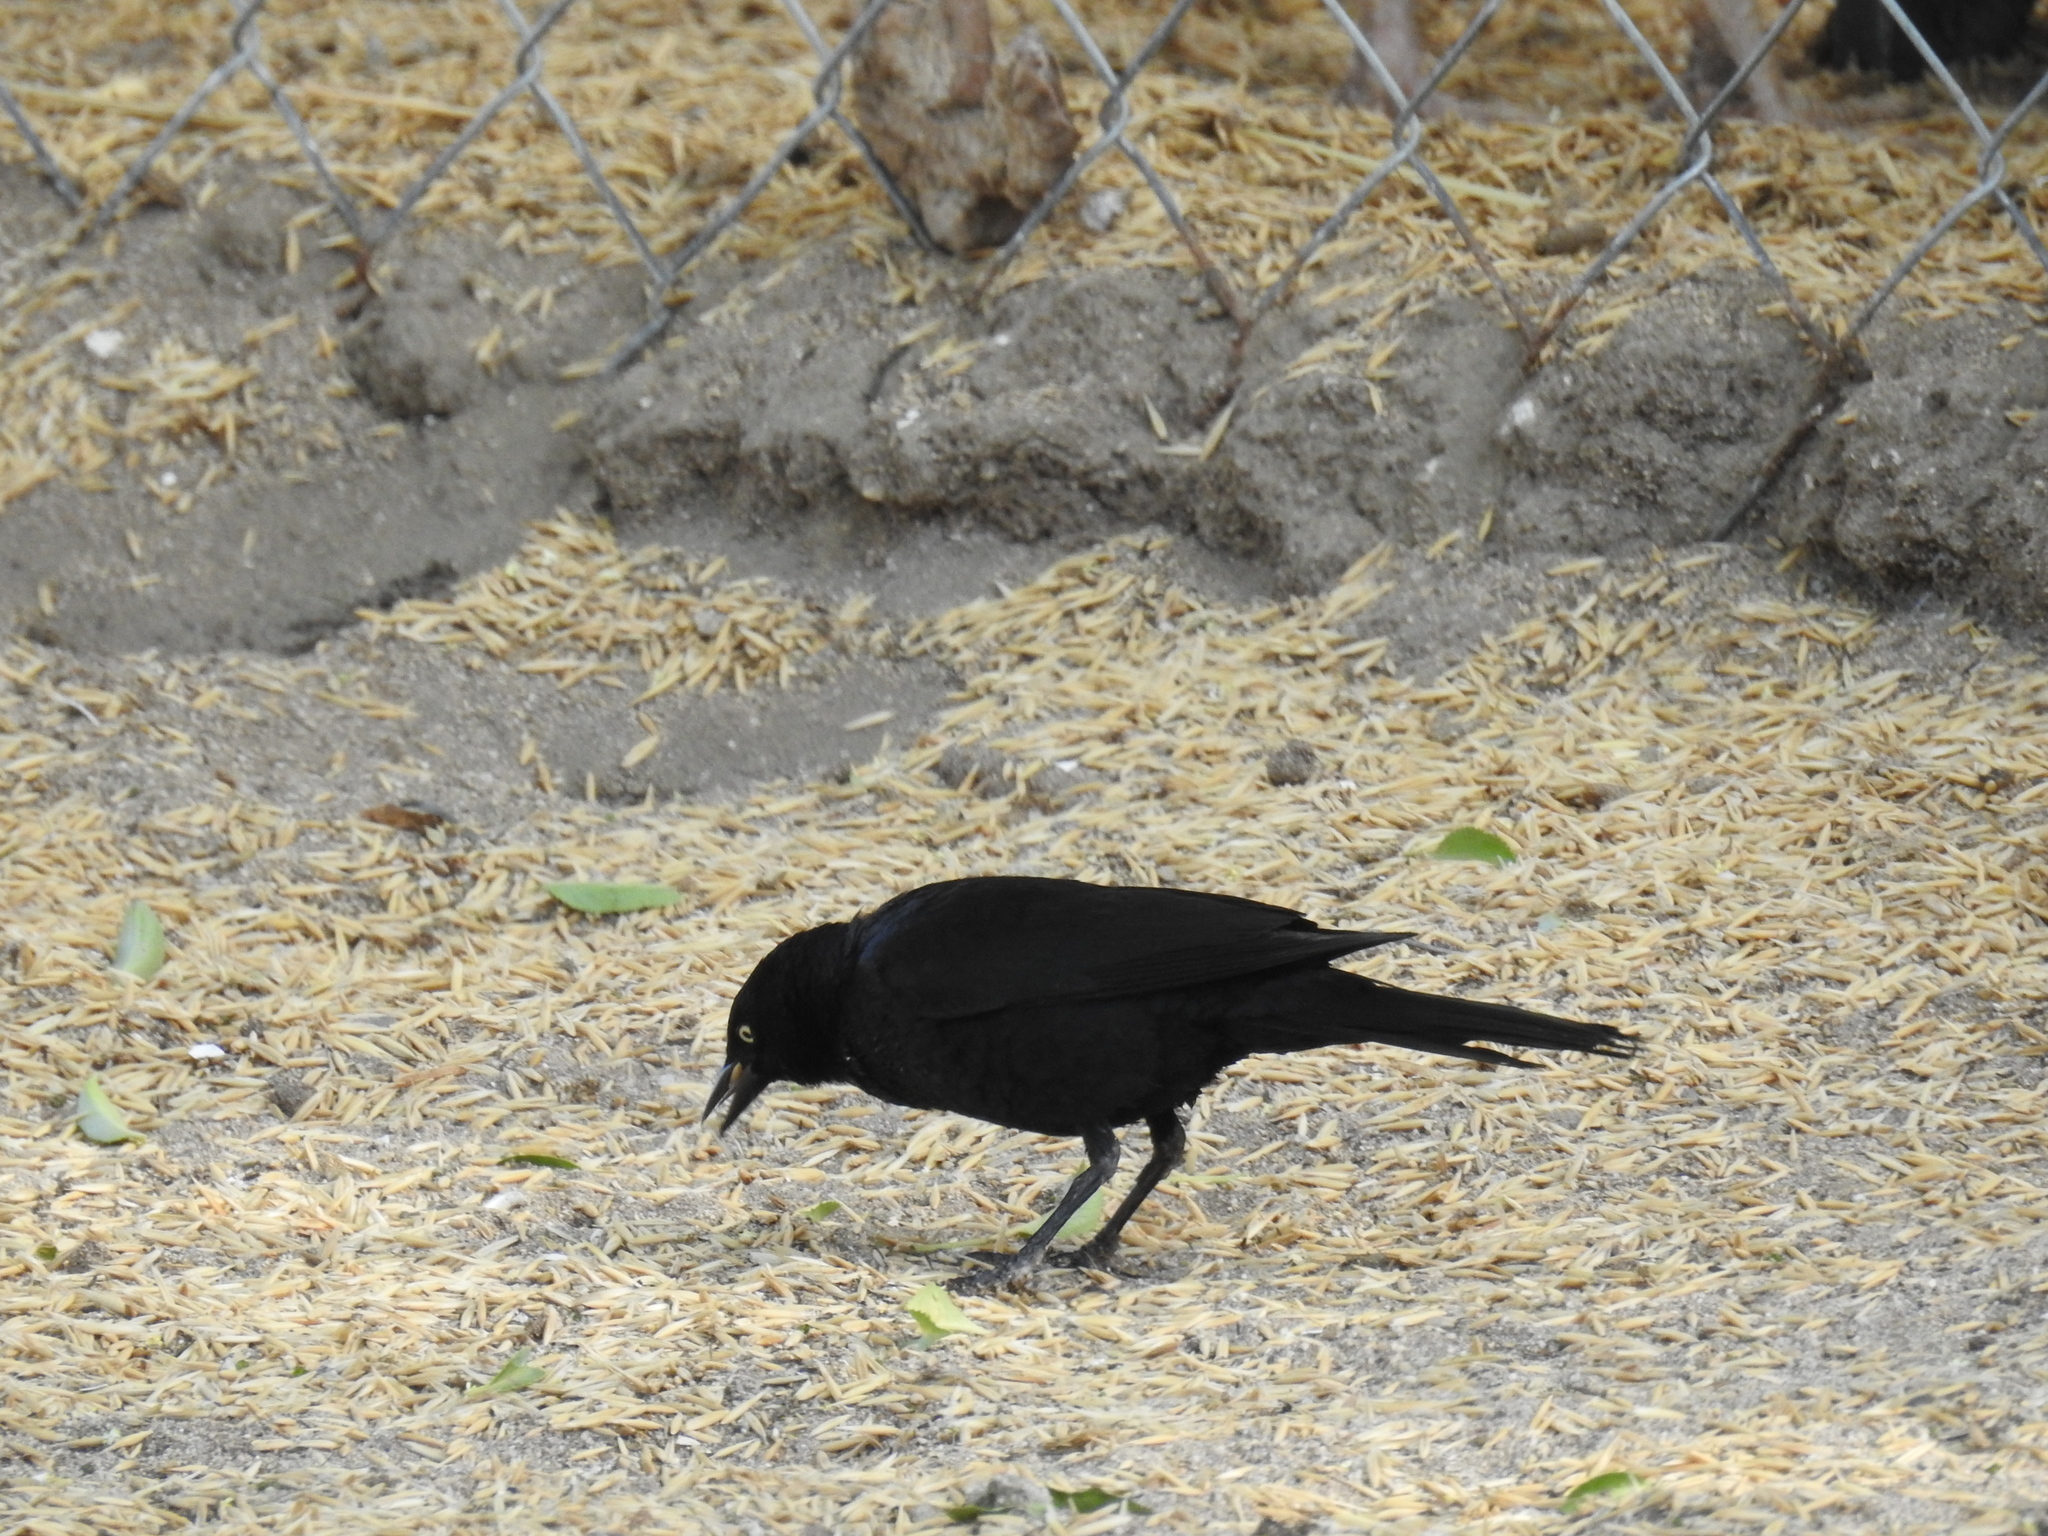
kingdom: Animalia
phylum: Chordata
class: Aves
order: Passeriformes
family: Icteridae
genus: Euphagus
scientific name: Euphagus cyanocephalus
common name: Brewer's blackbird
